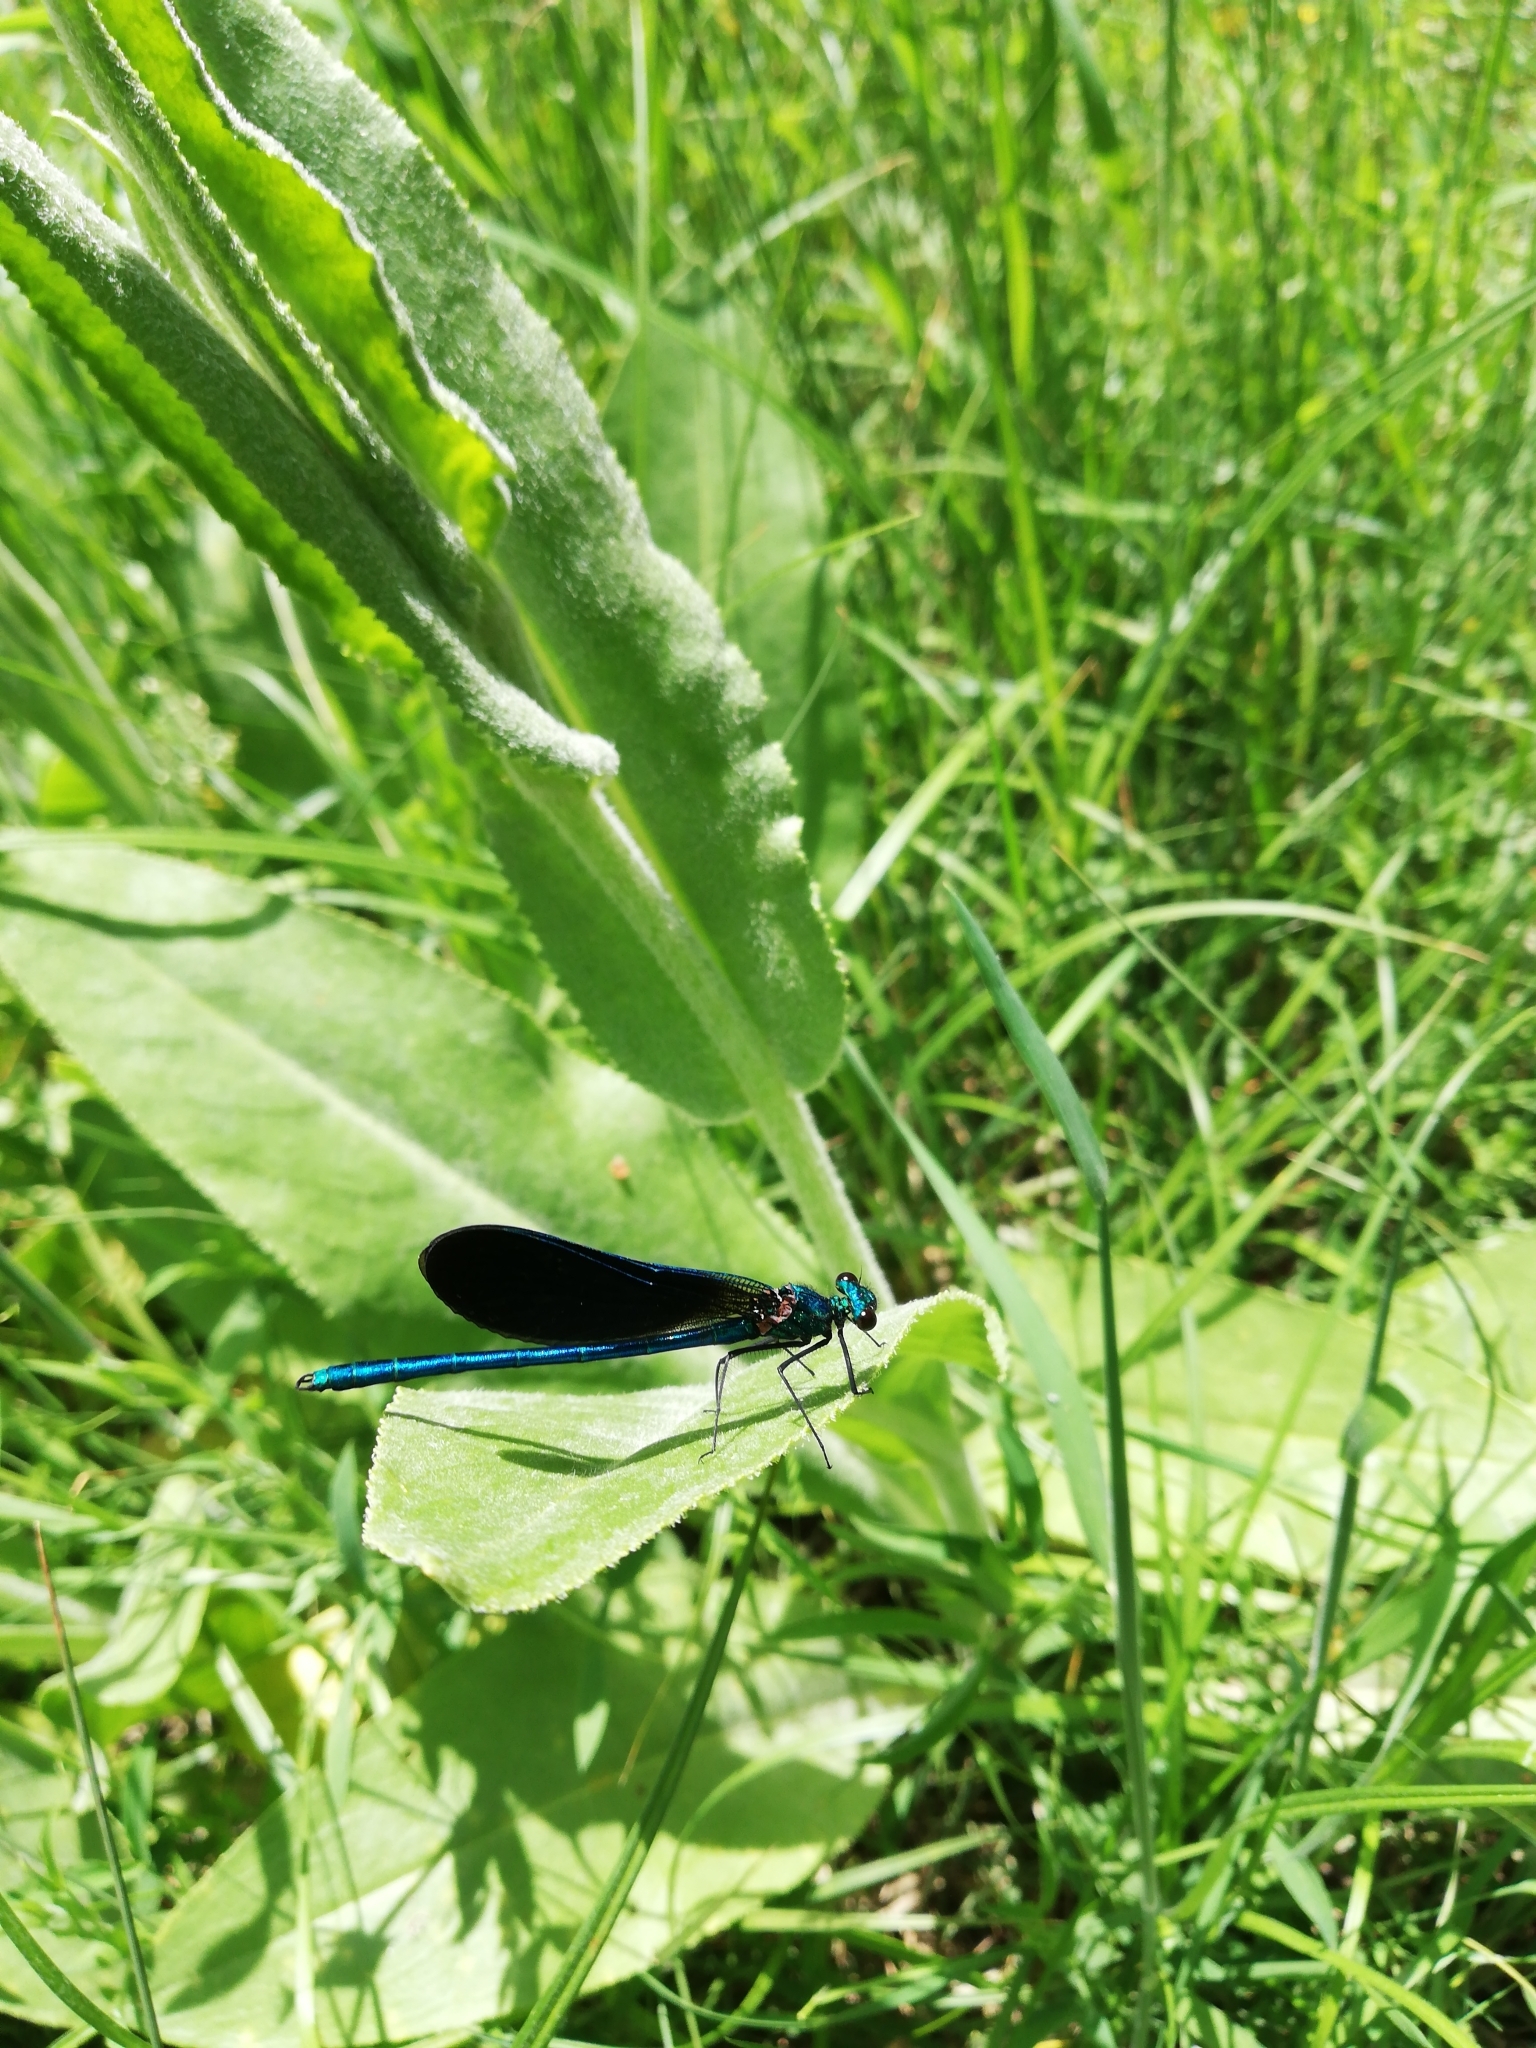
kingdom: Animalia
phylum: Arthropoda
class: Insecta
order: Odonata
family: Calopterygidae
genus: Calopteryx
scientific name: Calopteryx virgo
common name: Beautiful demoiselle
